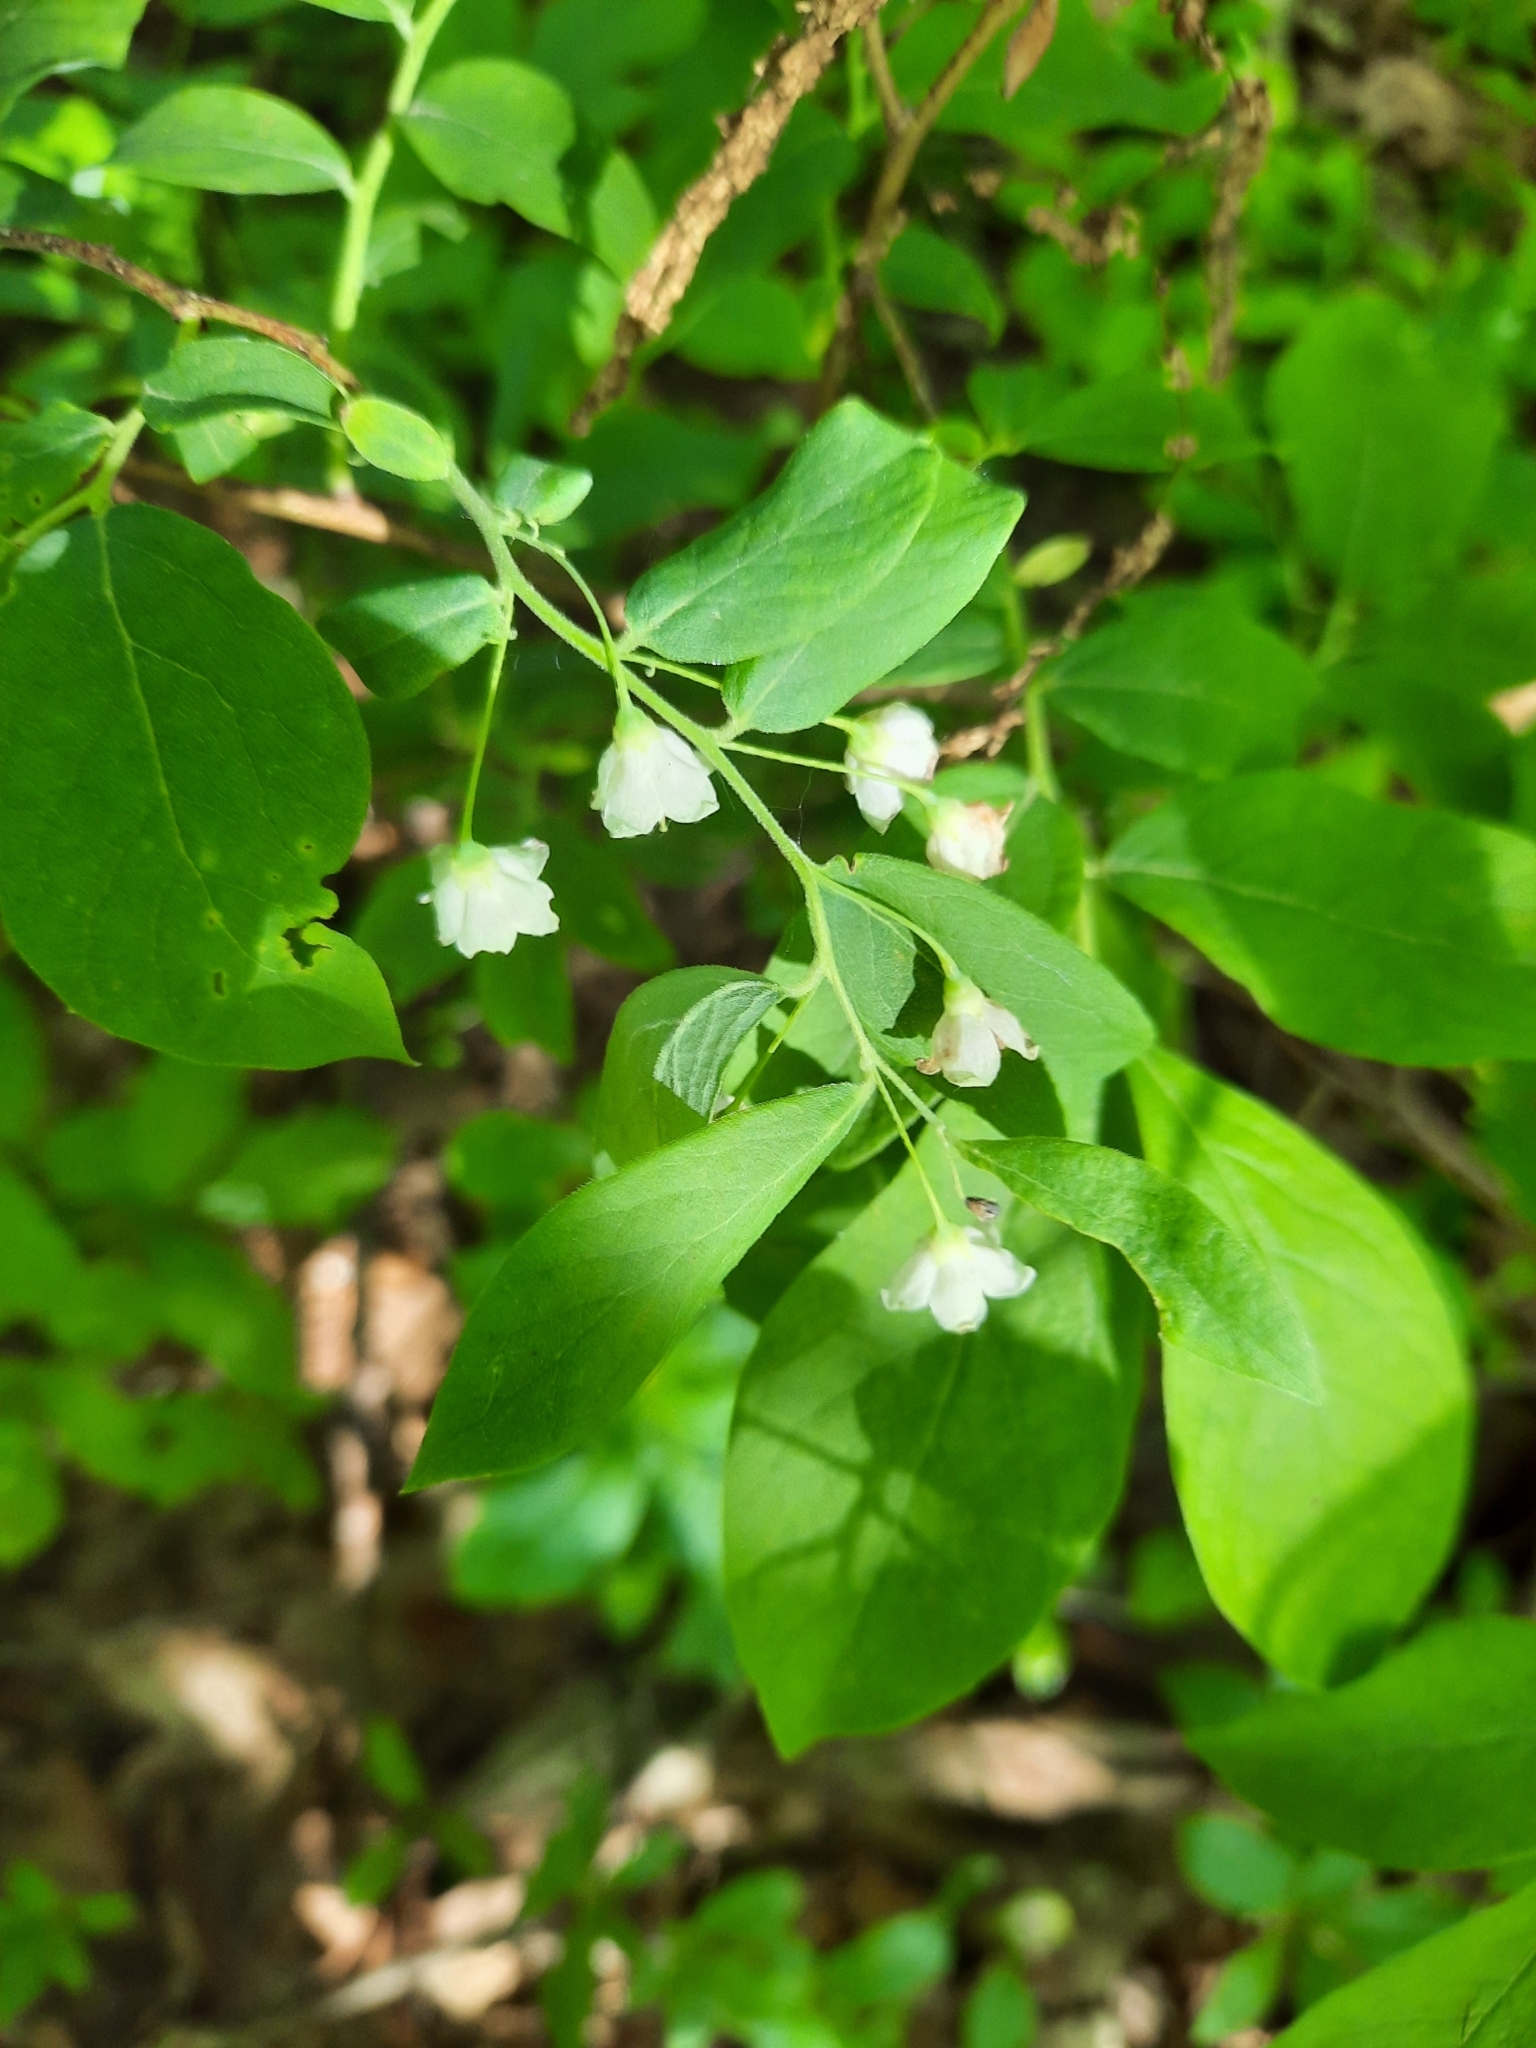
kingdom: Plantae
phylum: Tracheophyta
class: Magnoliopsida
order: Ericales
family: Ericaceae
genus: Vaccinium
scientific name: Vaccinium stamineum
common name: Deerberry
